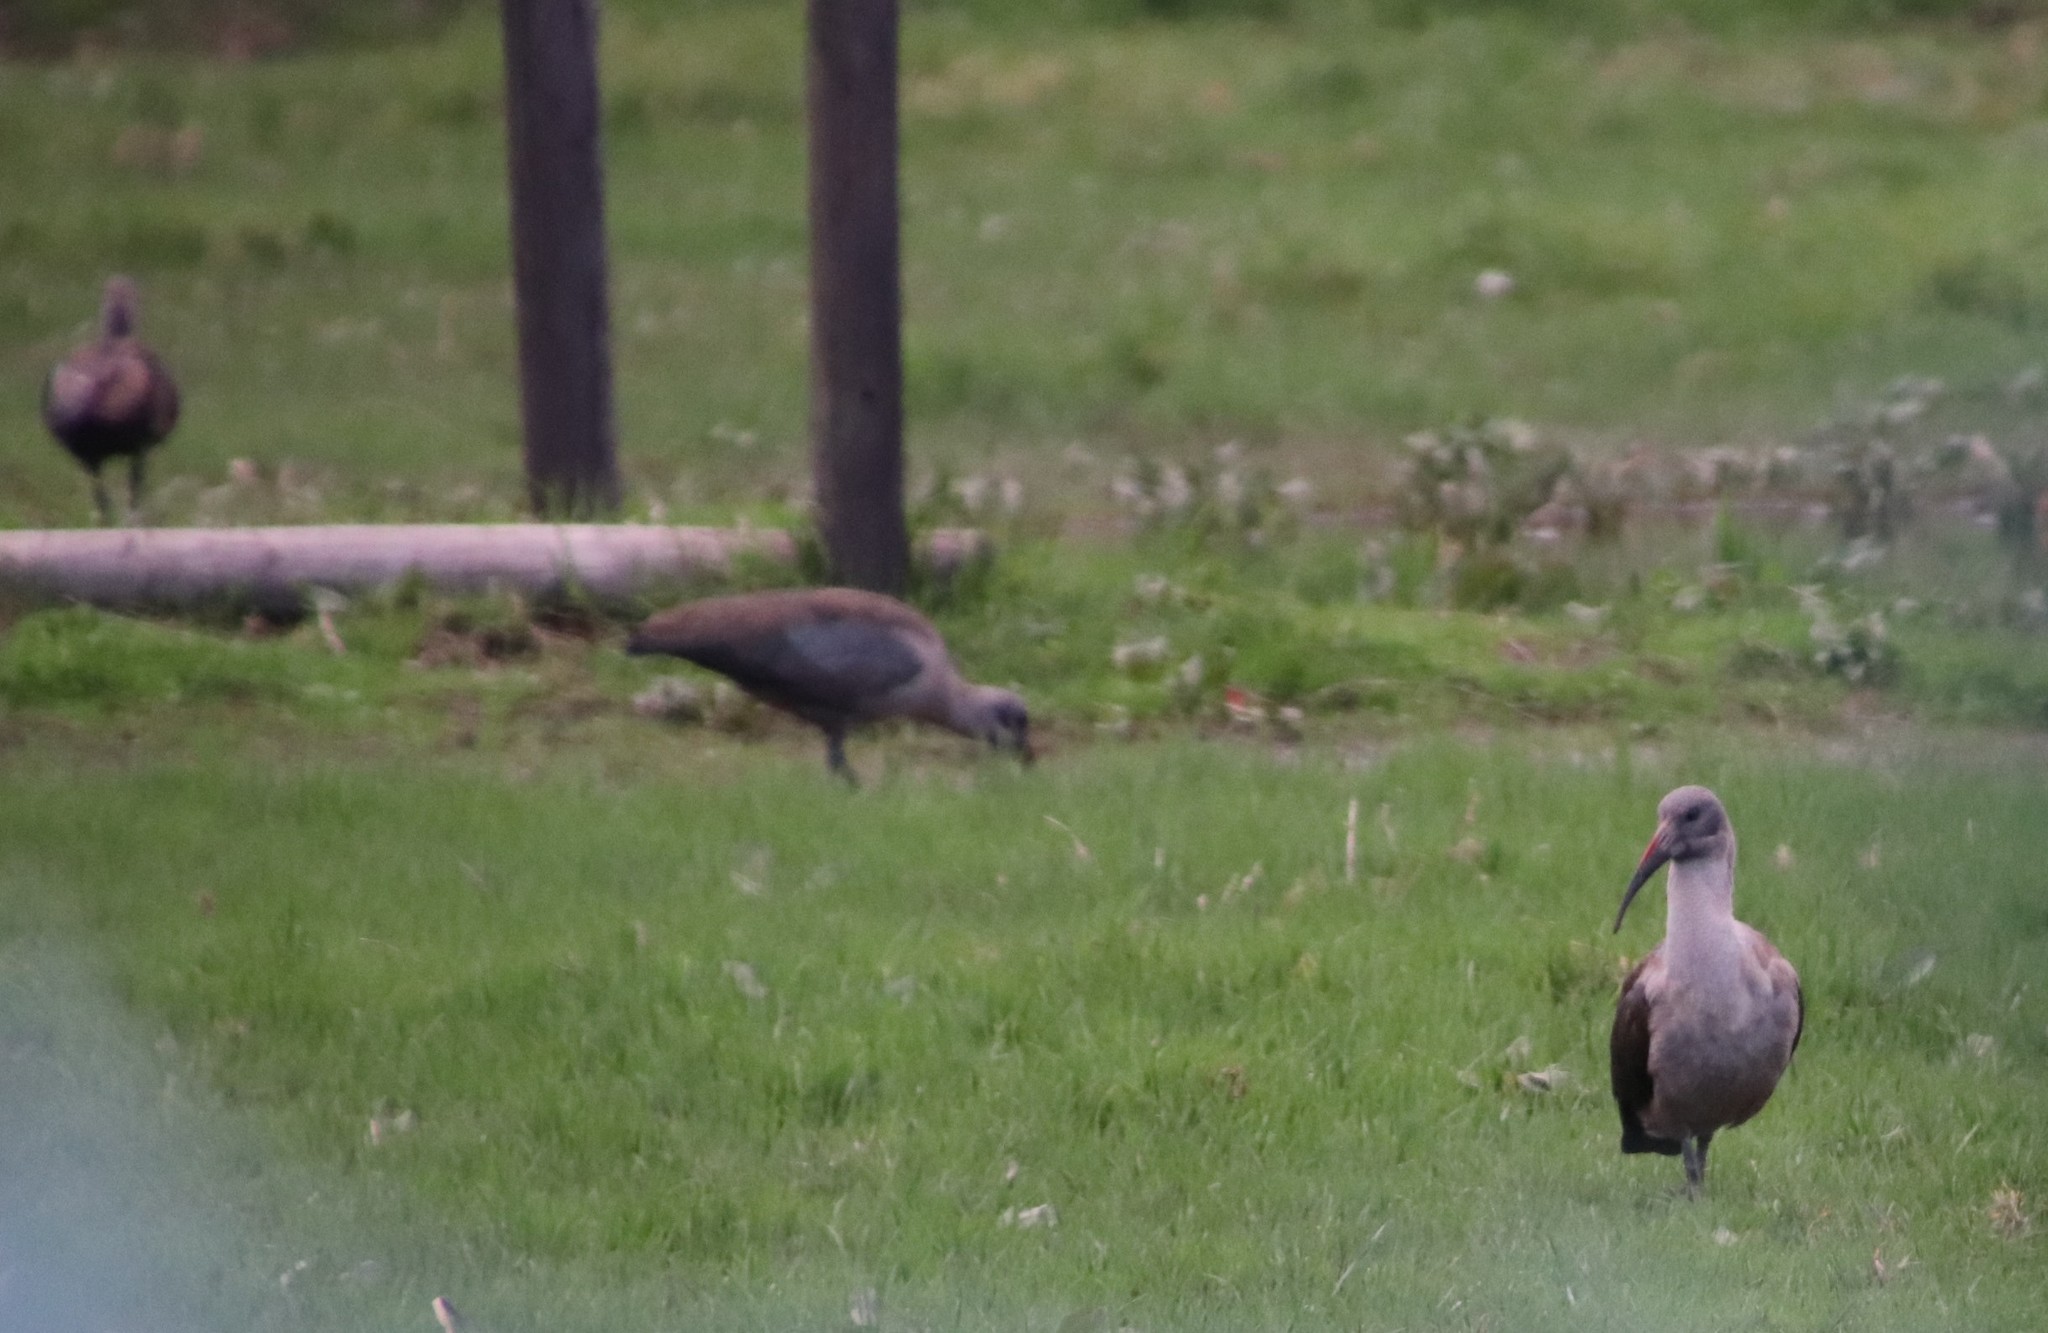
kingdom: Animalia
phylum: Chordata
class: Aves
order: Pelecaniformes
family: Threskiornithidae
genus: Bostrychia
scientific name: Bostrychia hagedash
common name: Hadada ibis
